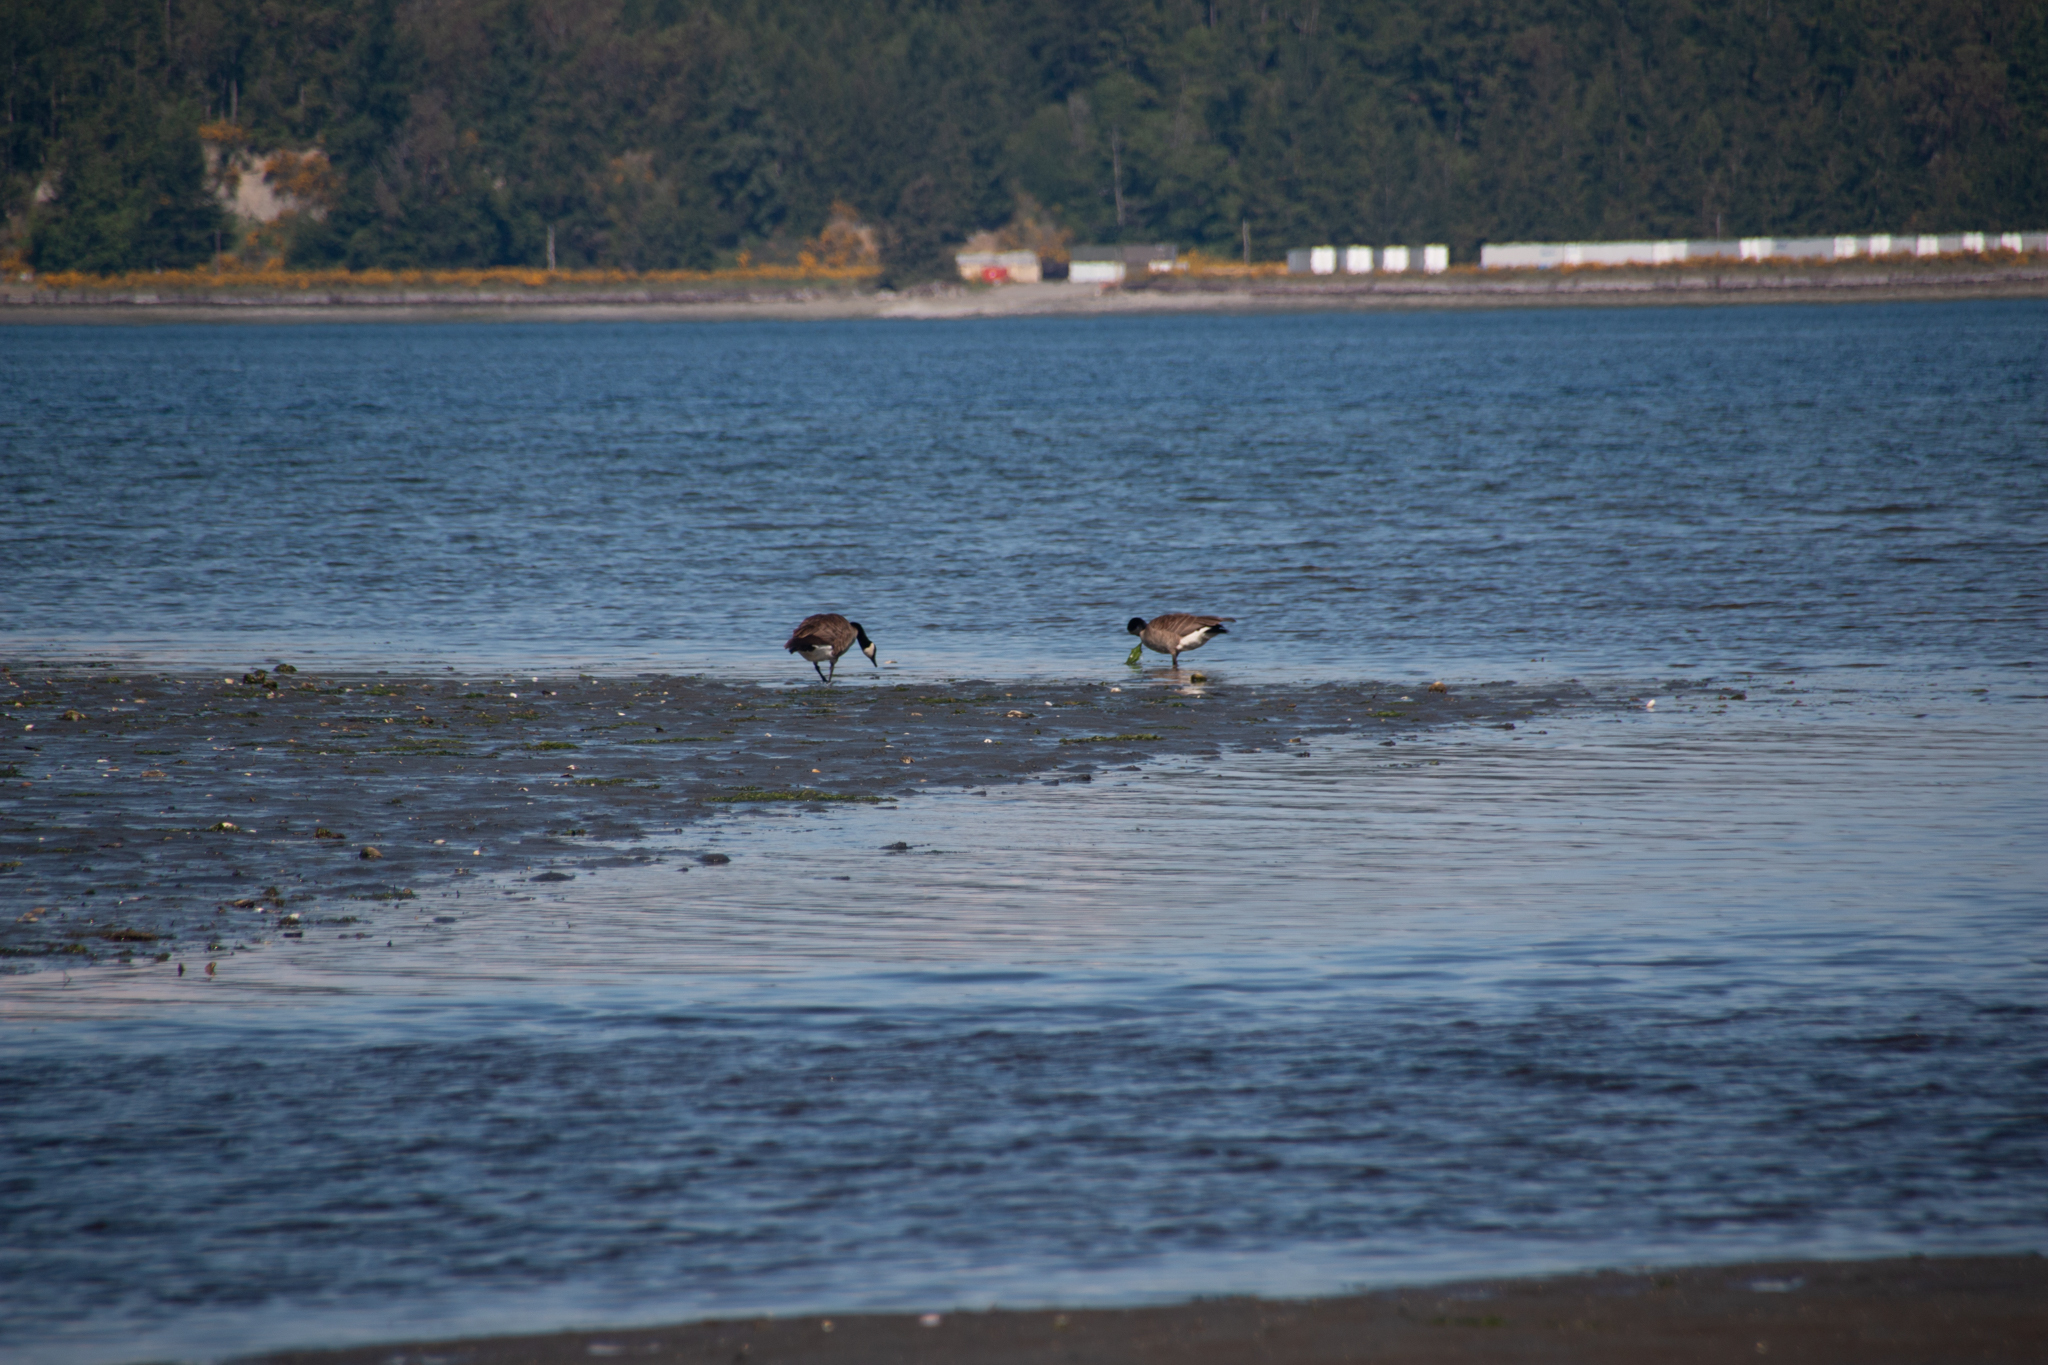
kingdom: Animalia
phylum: Chordata
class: Aves
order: Anseriformes
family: Anatidae
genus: Branta
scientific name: Branta canadensis
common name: Canada goose
